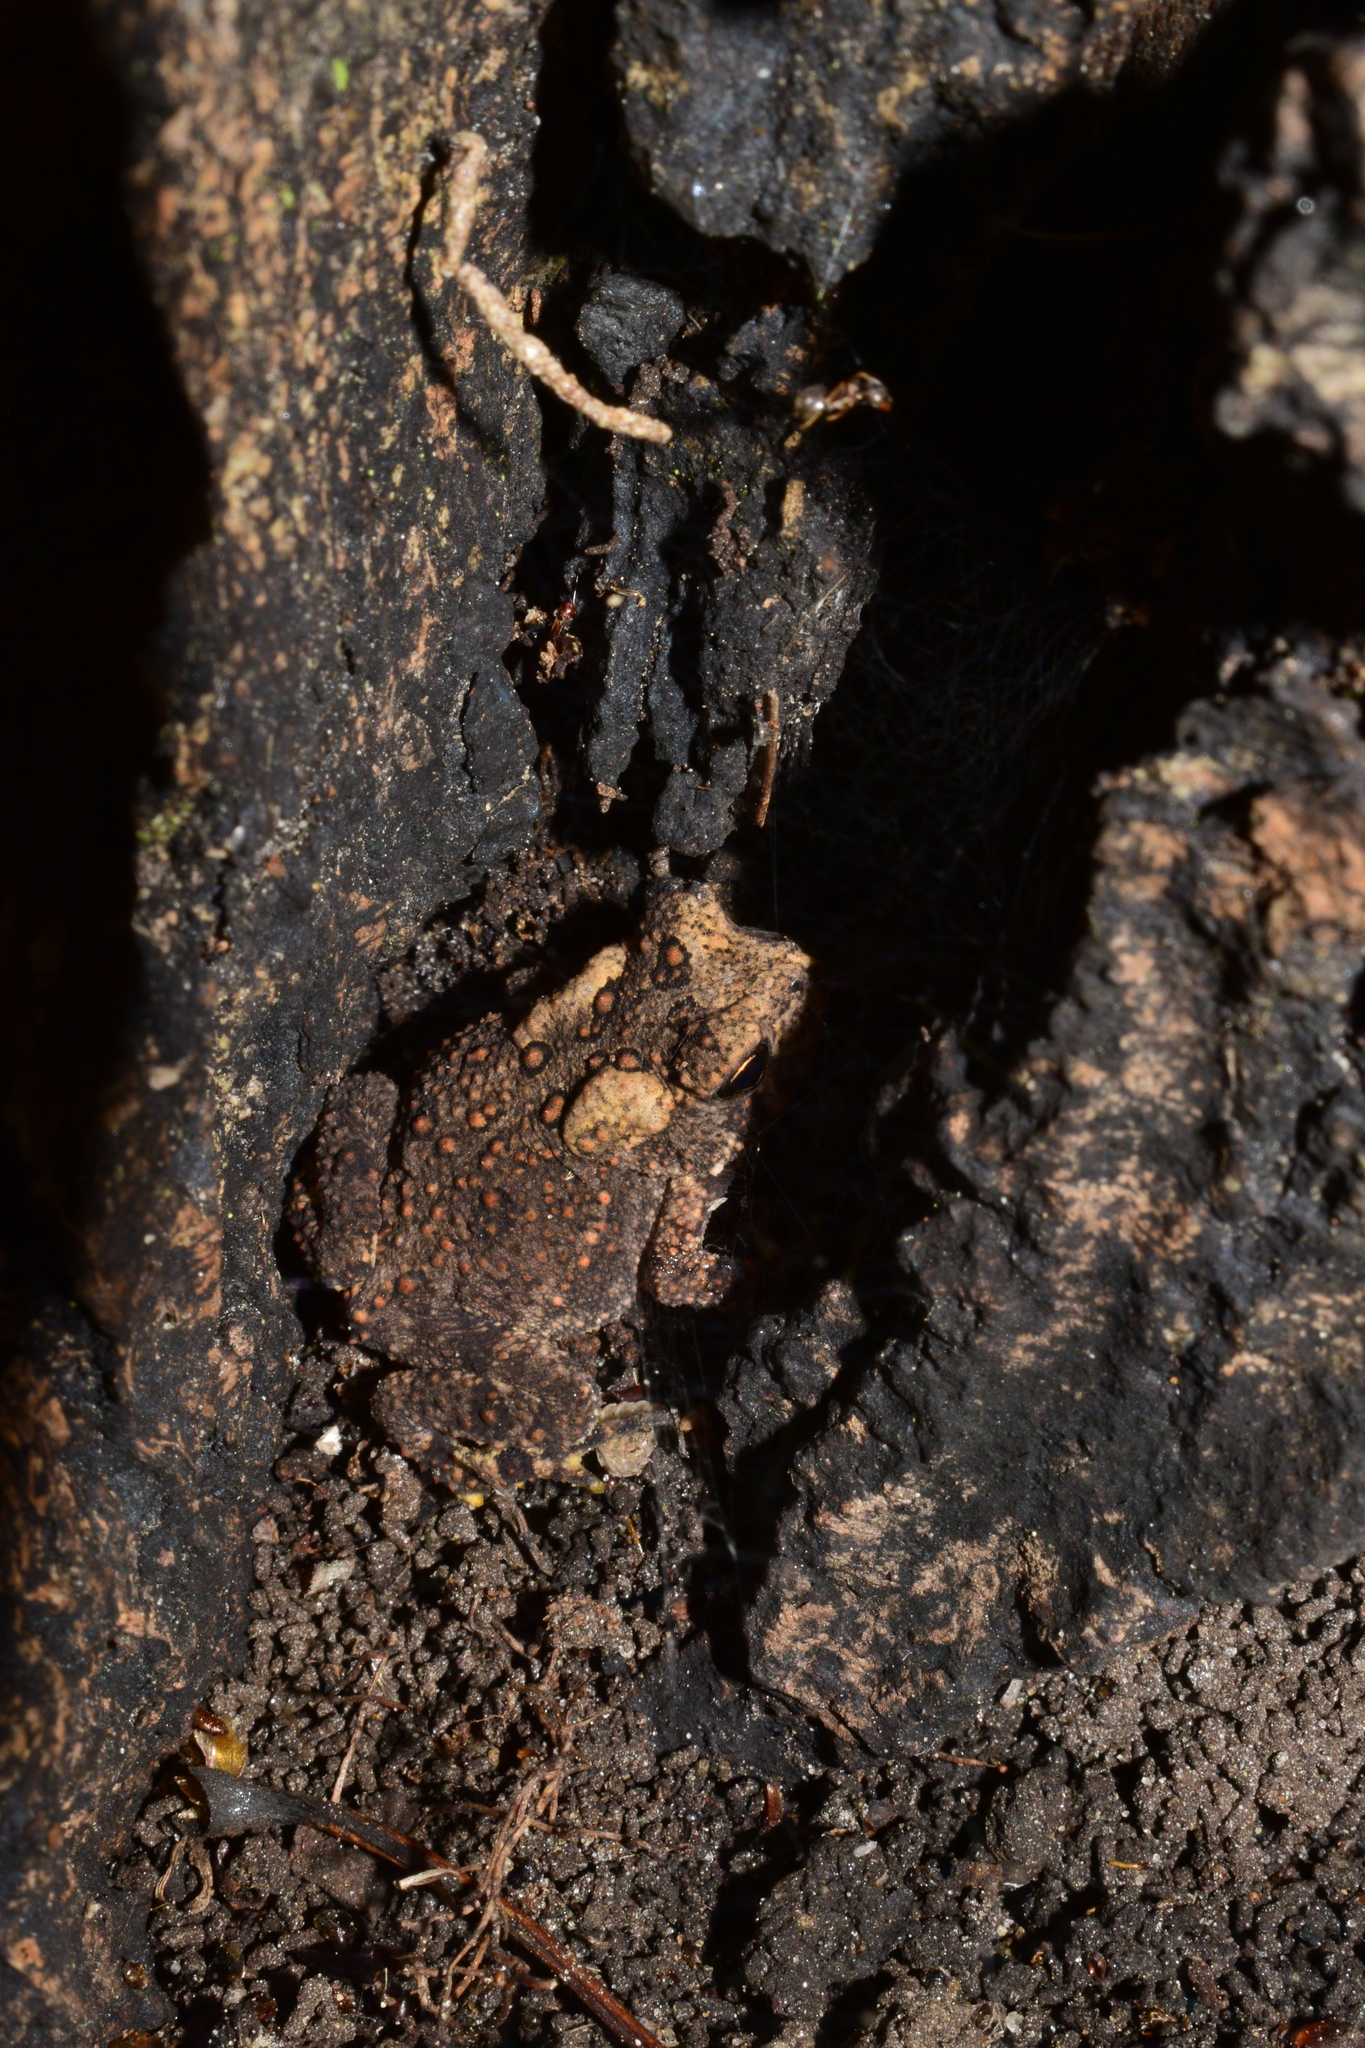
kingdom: Animalia
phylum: Chordata
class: Amphibia
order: Anura
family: Bufonidae
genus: Anaxyrus
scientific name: Anaxyrus americanus
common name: American toad
